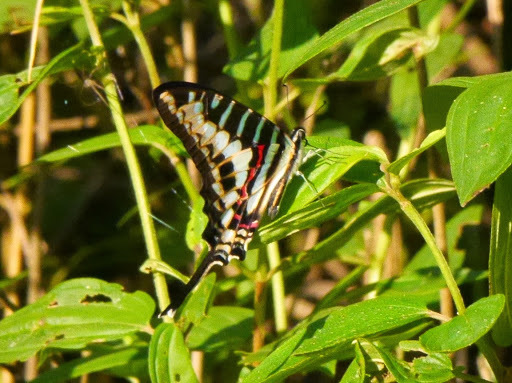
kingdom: Animalia
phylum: Arthropoda
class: Insecta
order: Lepidoptera
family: Papilionidae
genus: Graphium
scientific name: Graphium policenes
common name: Common swordtail
